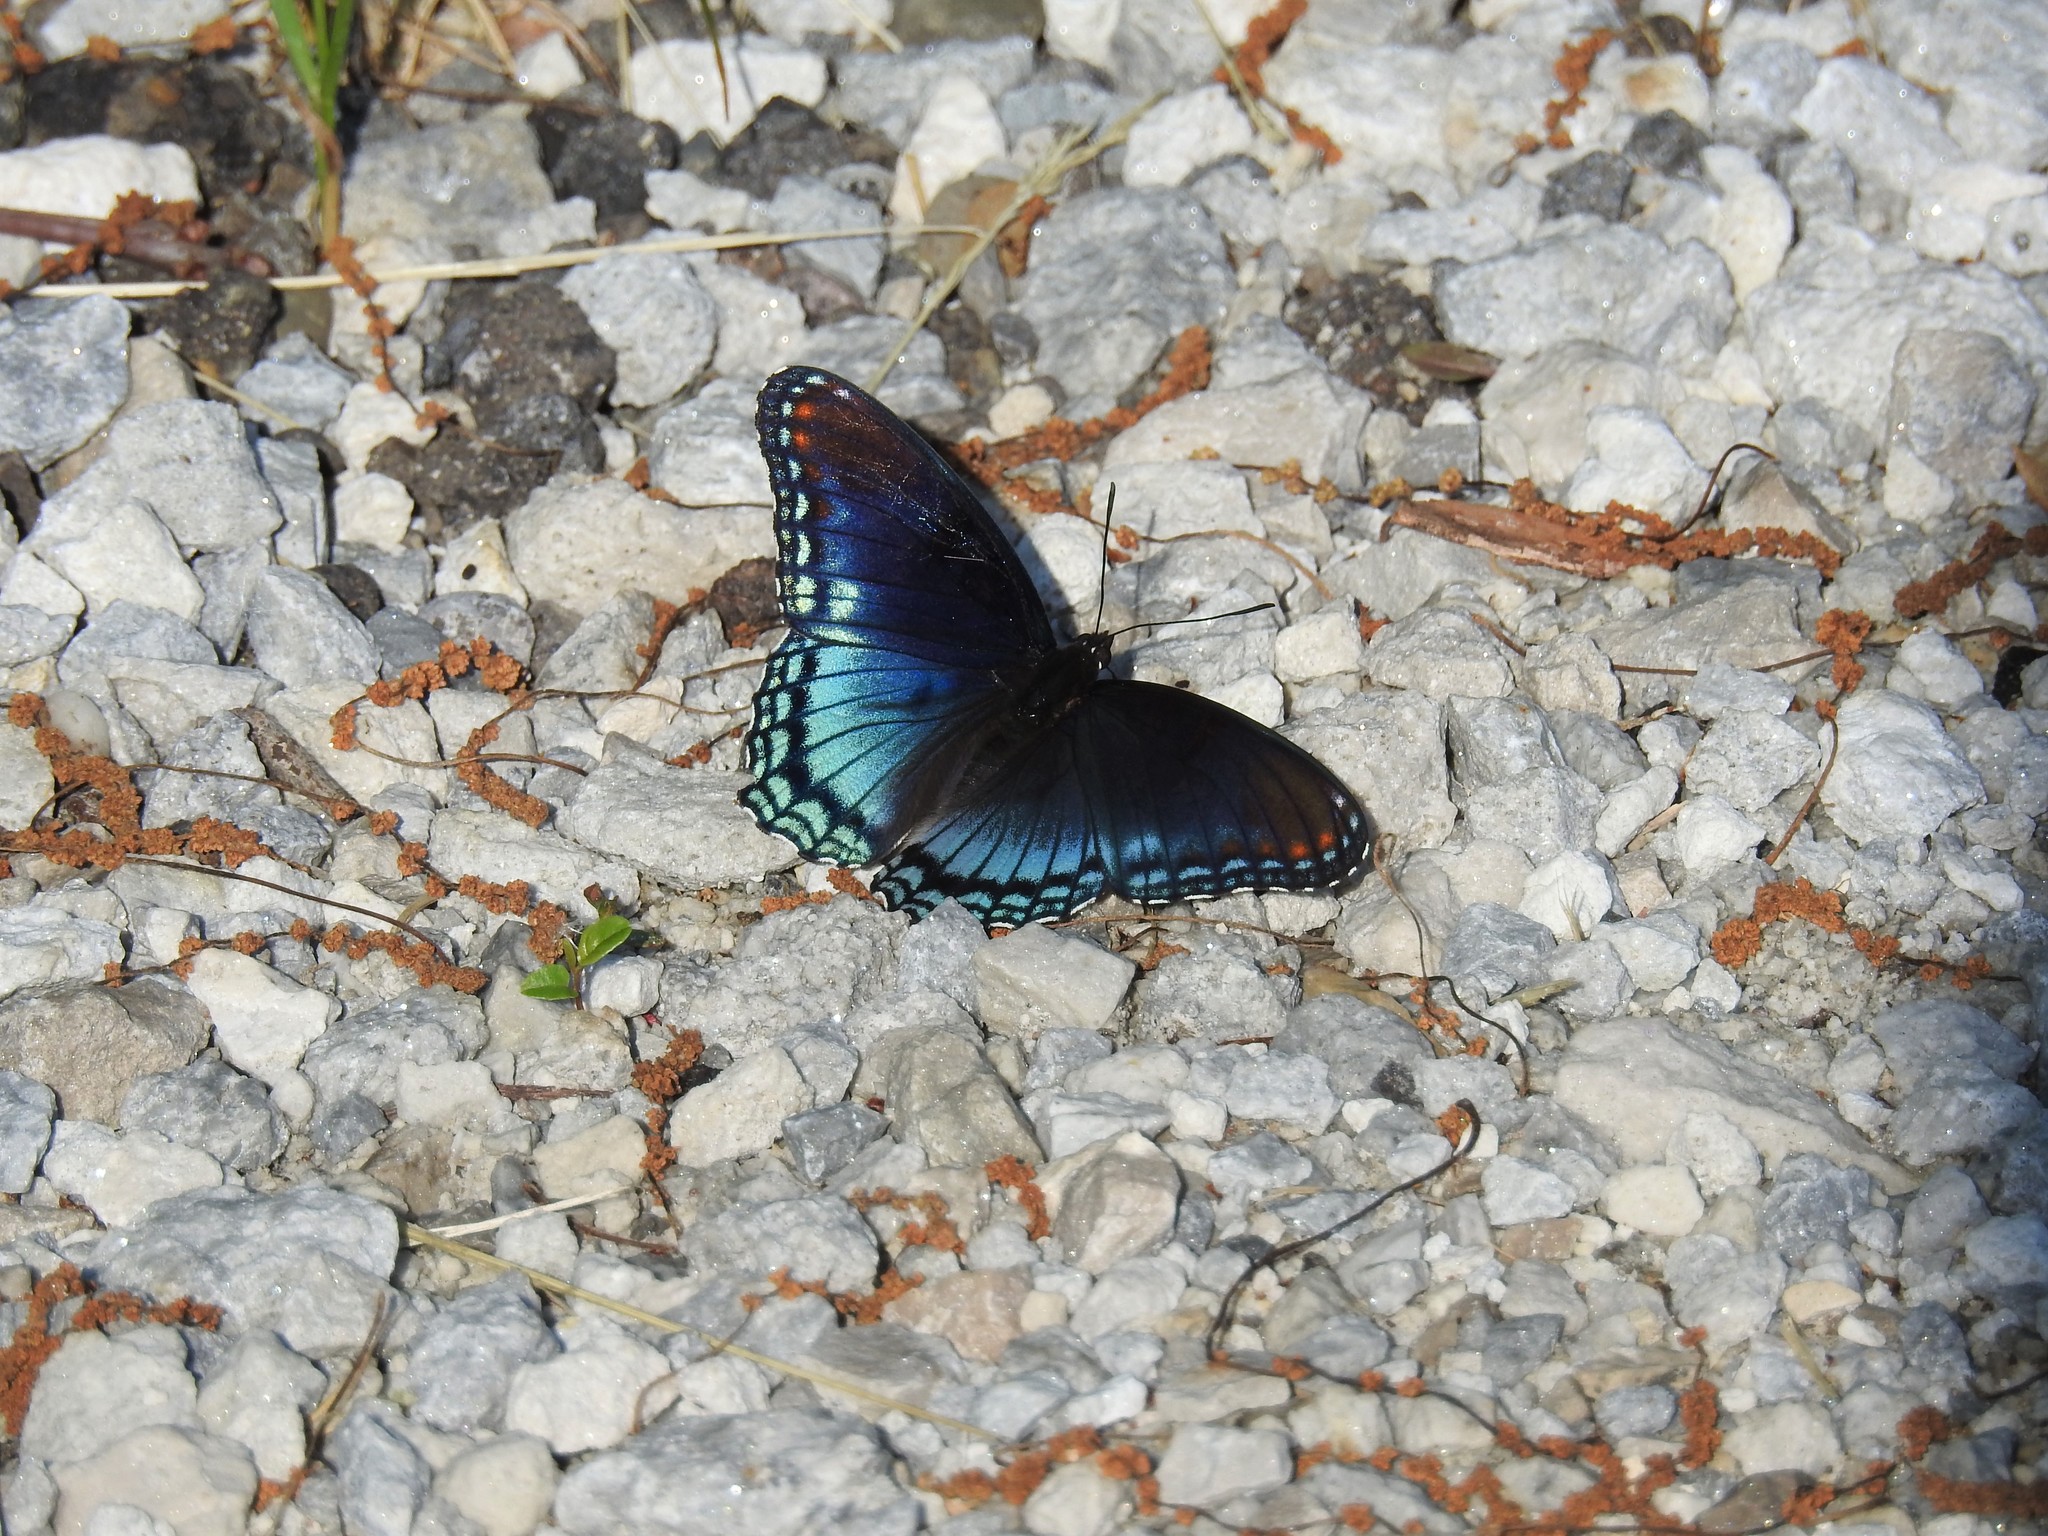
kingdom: Animalia
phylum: Arthropoda
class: Insecta
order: Lepidoptera
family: Nymphalidae
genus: Limenitis
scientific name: Limenitis astyanax
